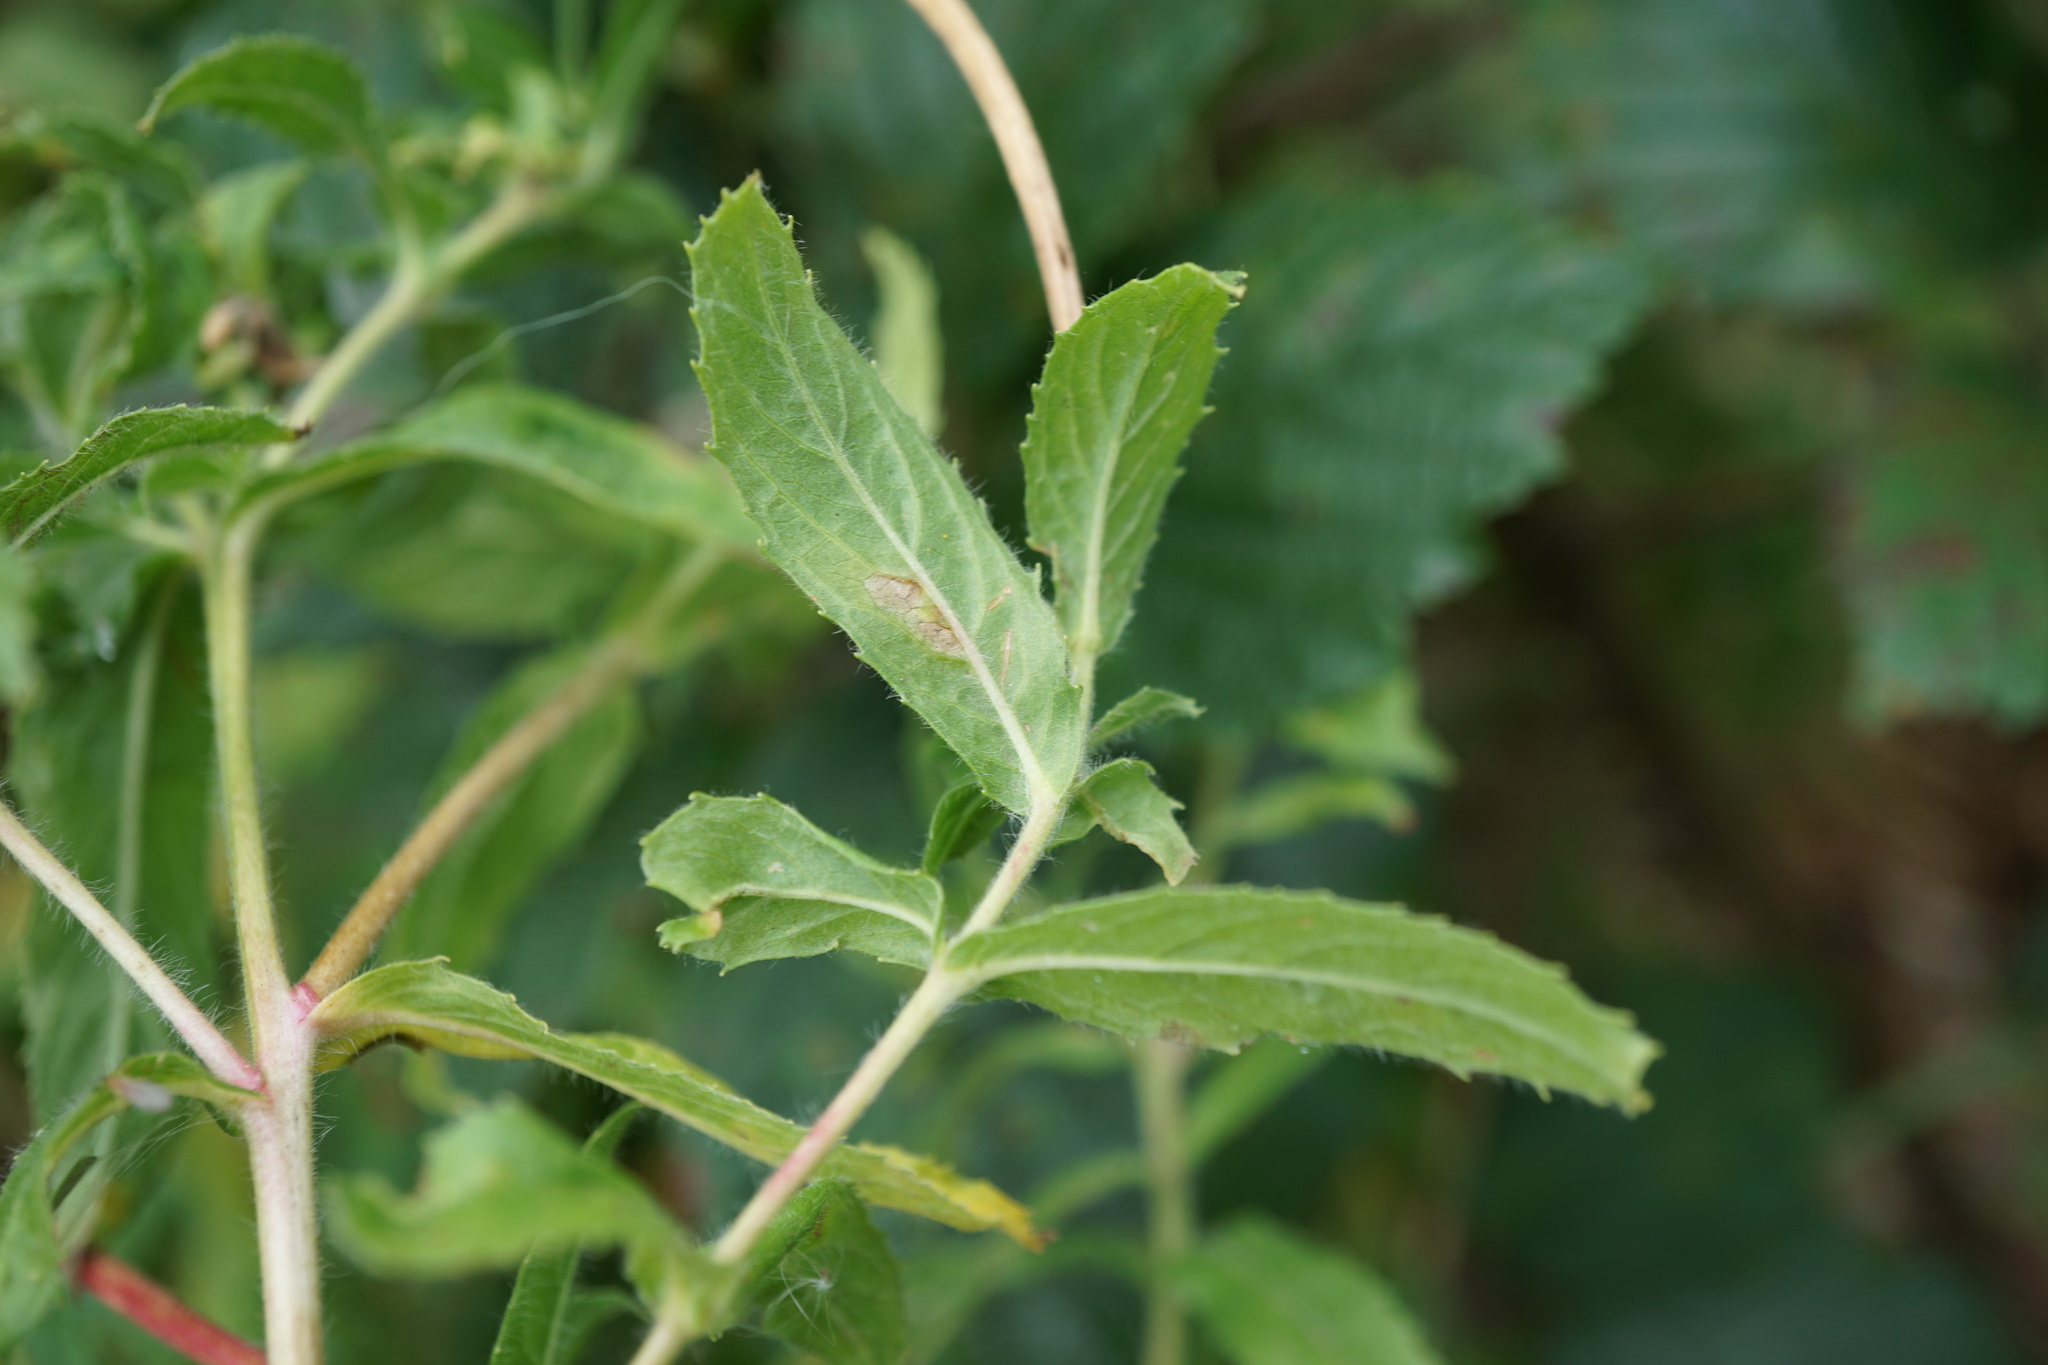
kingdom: Plantae
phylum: Tracheophyta
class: Magnoliopsida
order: Myrtales
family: Onagraceae
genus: Epilobium
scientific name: Epilobium hirsutum
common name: Great willowherb
